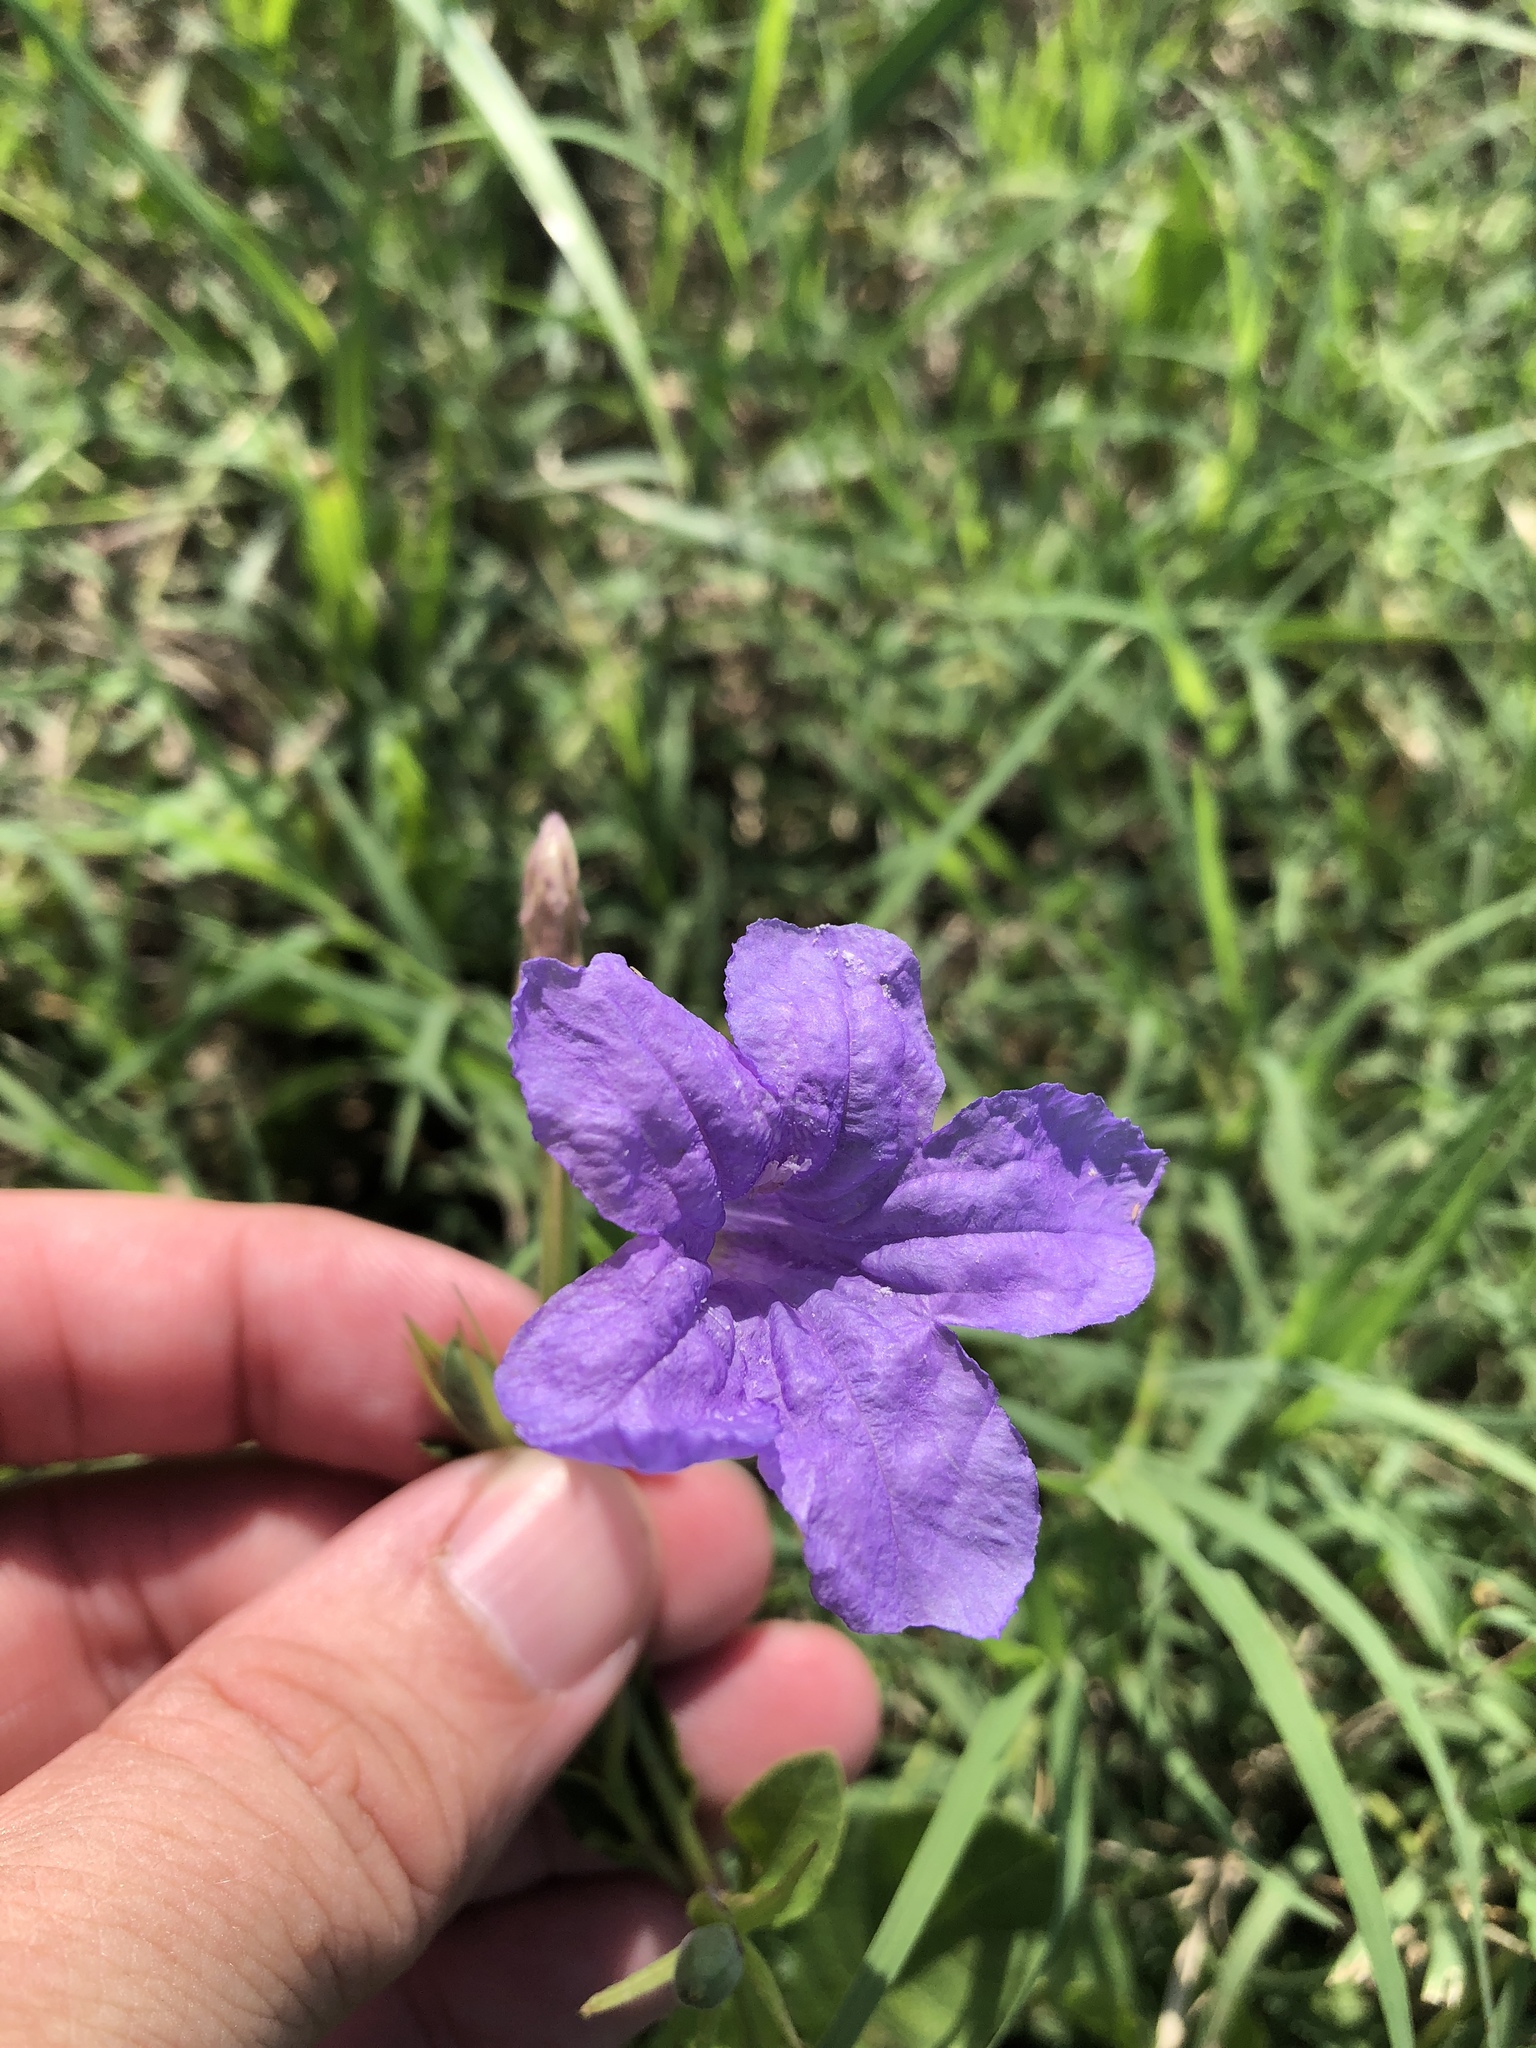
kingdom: Plantae
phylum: Tracheophyta
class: Magnoliopsida
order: Lamiales
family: Acanthaceae
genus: Ruellia
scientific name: Ruellia ciliatiflora
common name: Hairyflower wild petunia
